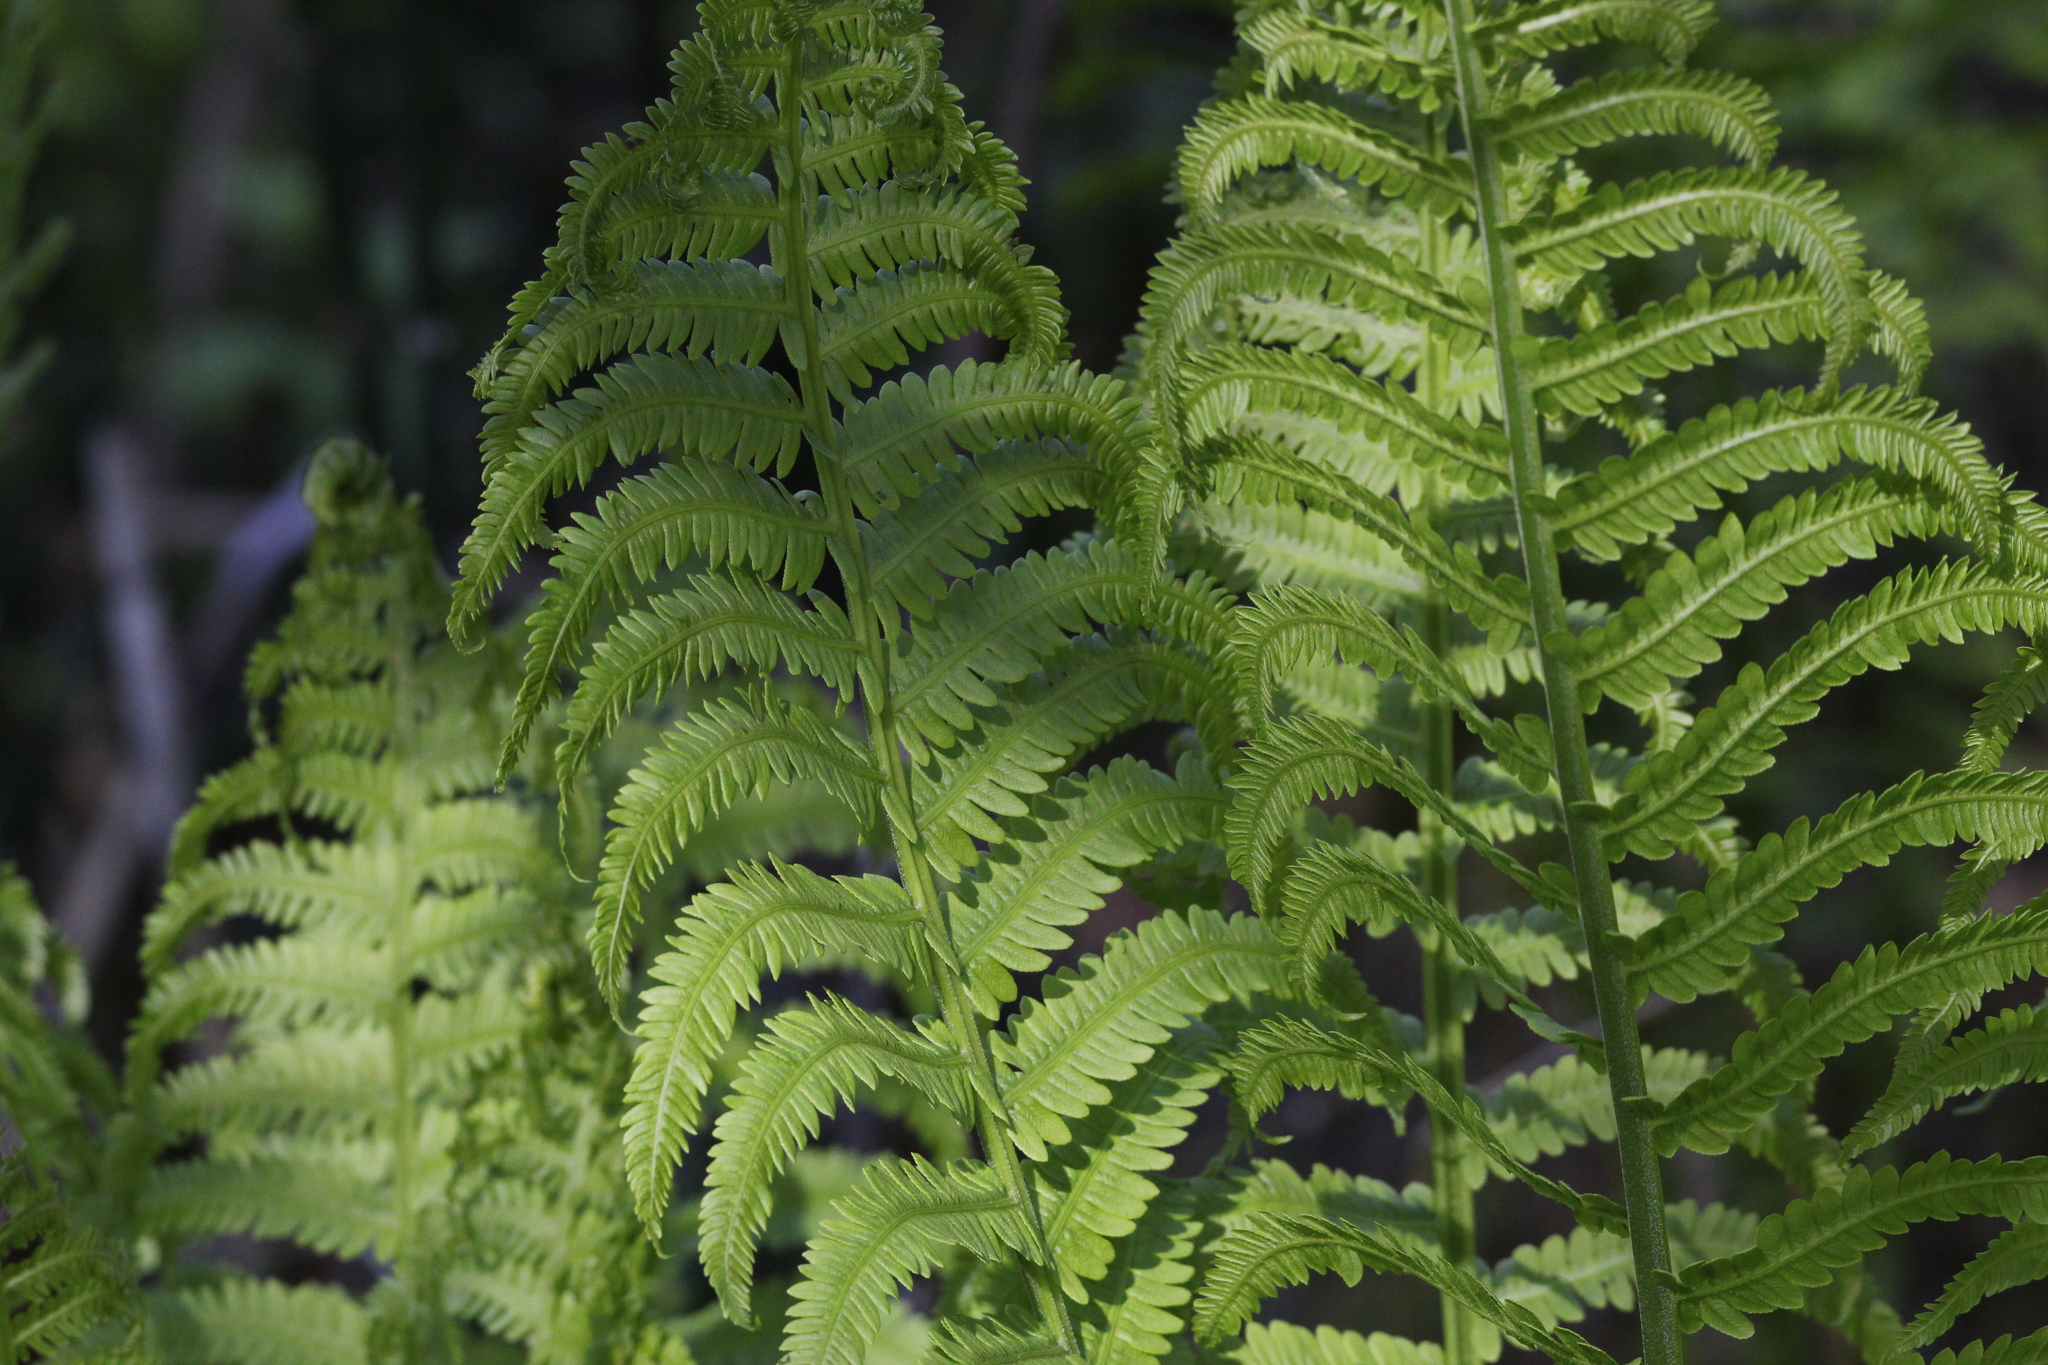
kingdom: Plantae
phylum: Tracheophyta
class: Polypodiopsida
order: Polypodiales
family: Onocleaceae
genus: Matteuccia
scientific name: Matteuccia struthiopteris
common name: Ostrich fern
